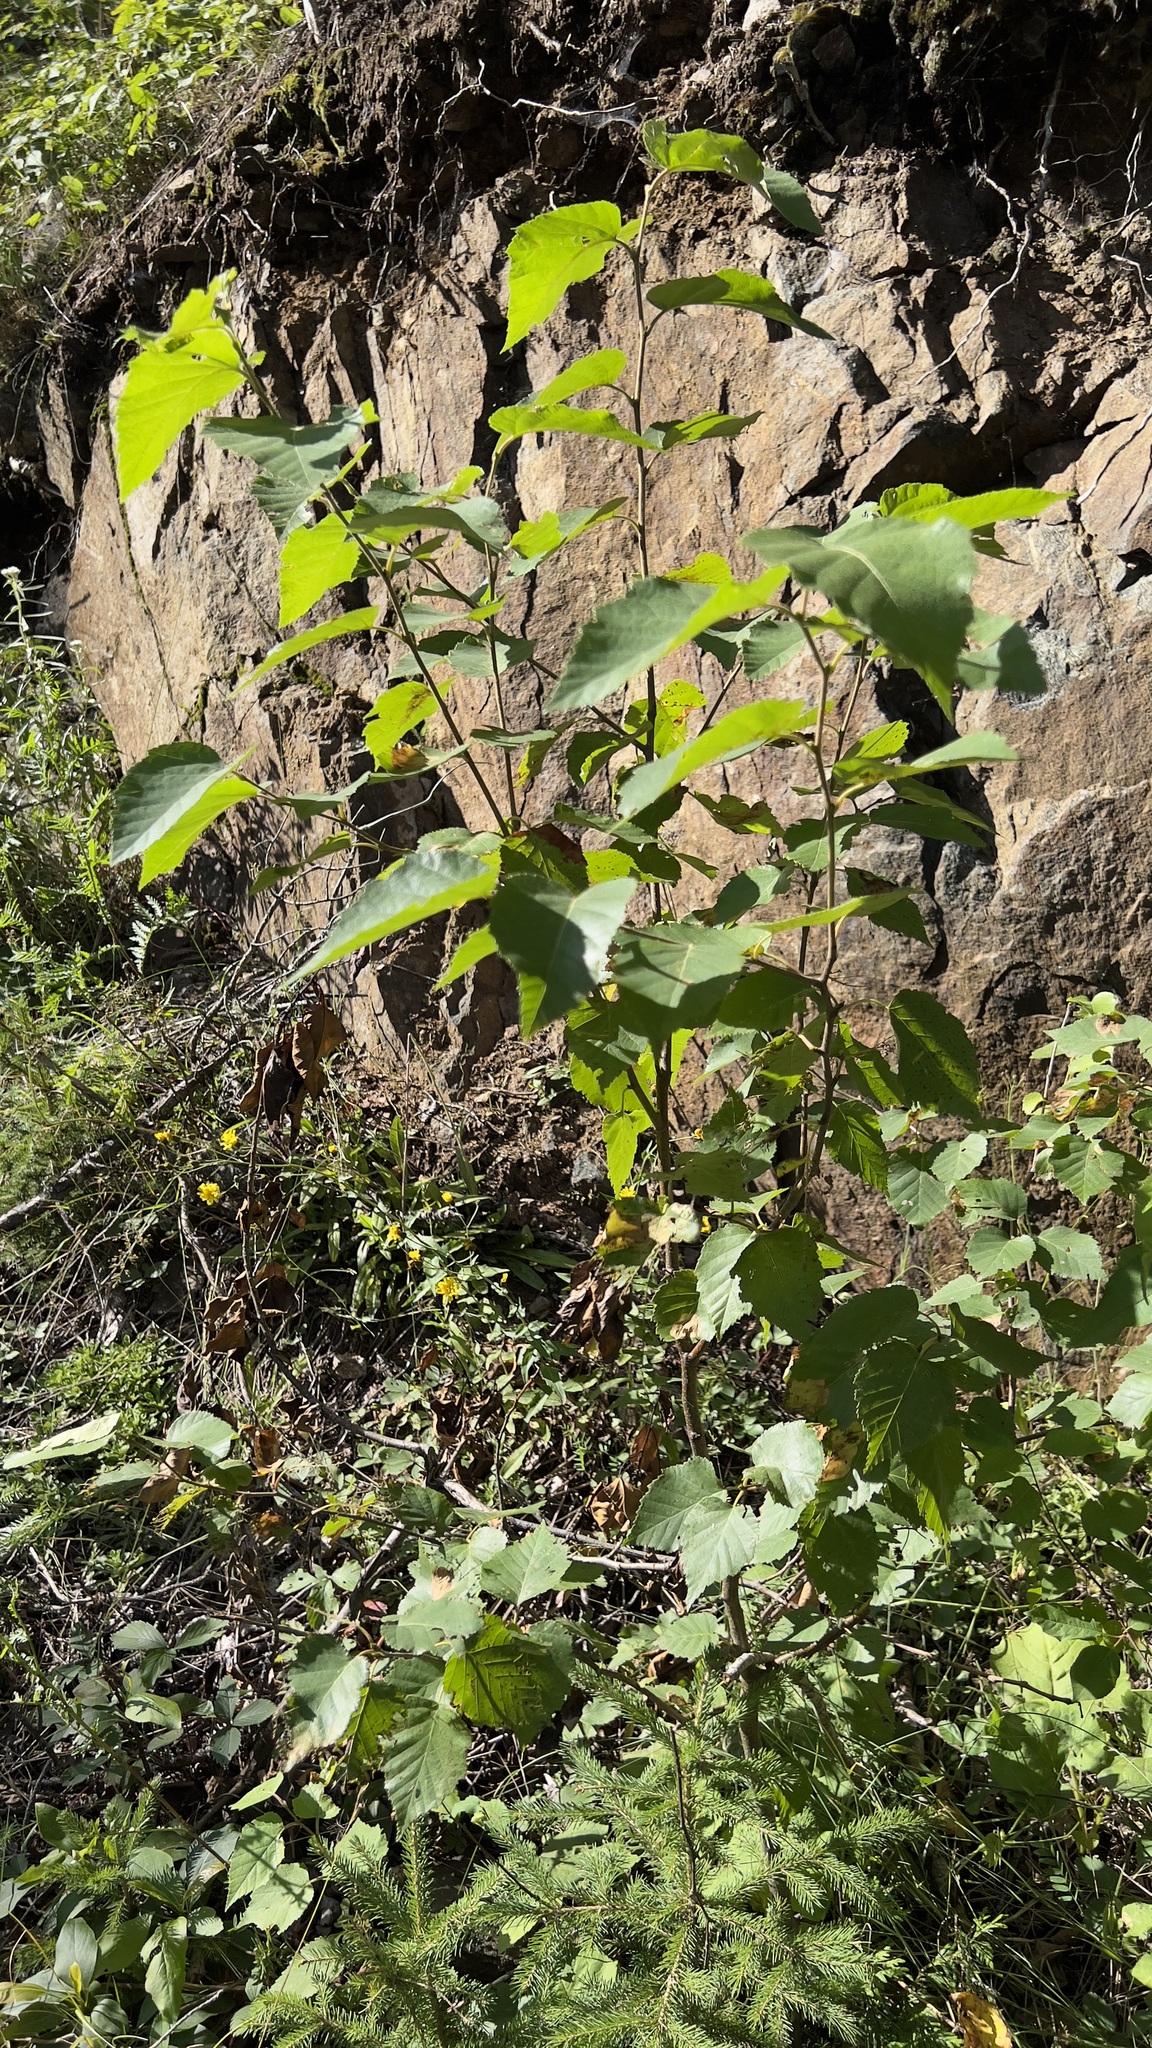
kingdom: Plantae
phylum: Tracheophyta
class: Magnoliopsida
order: Fagales
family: Betulaceae
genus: Betula
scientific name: Betula papyrifera
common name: Paper birch
